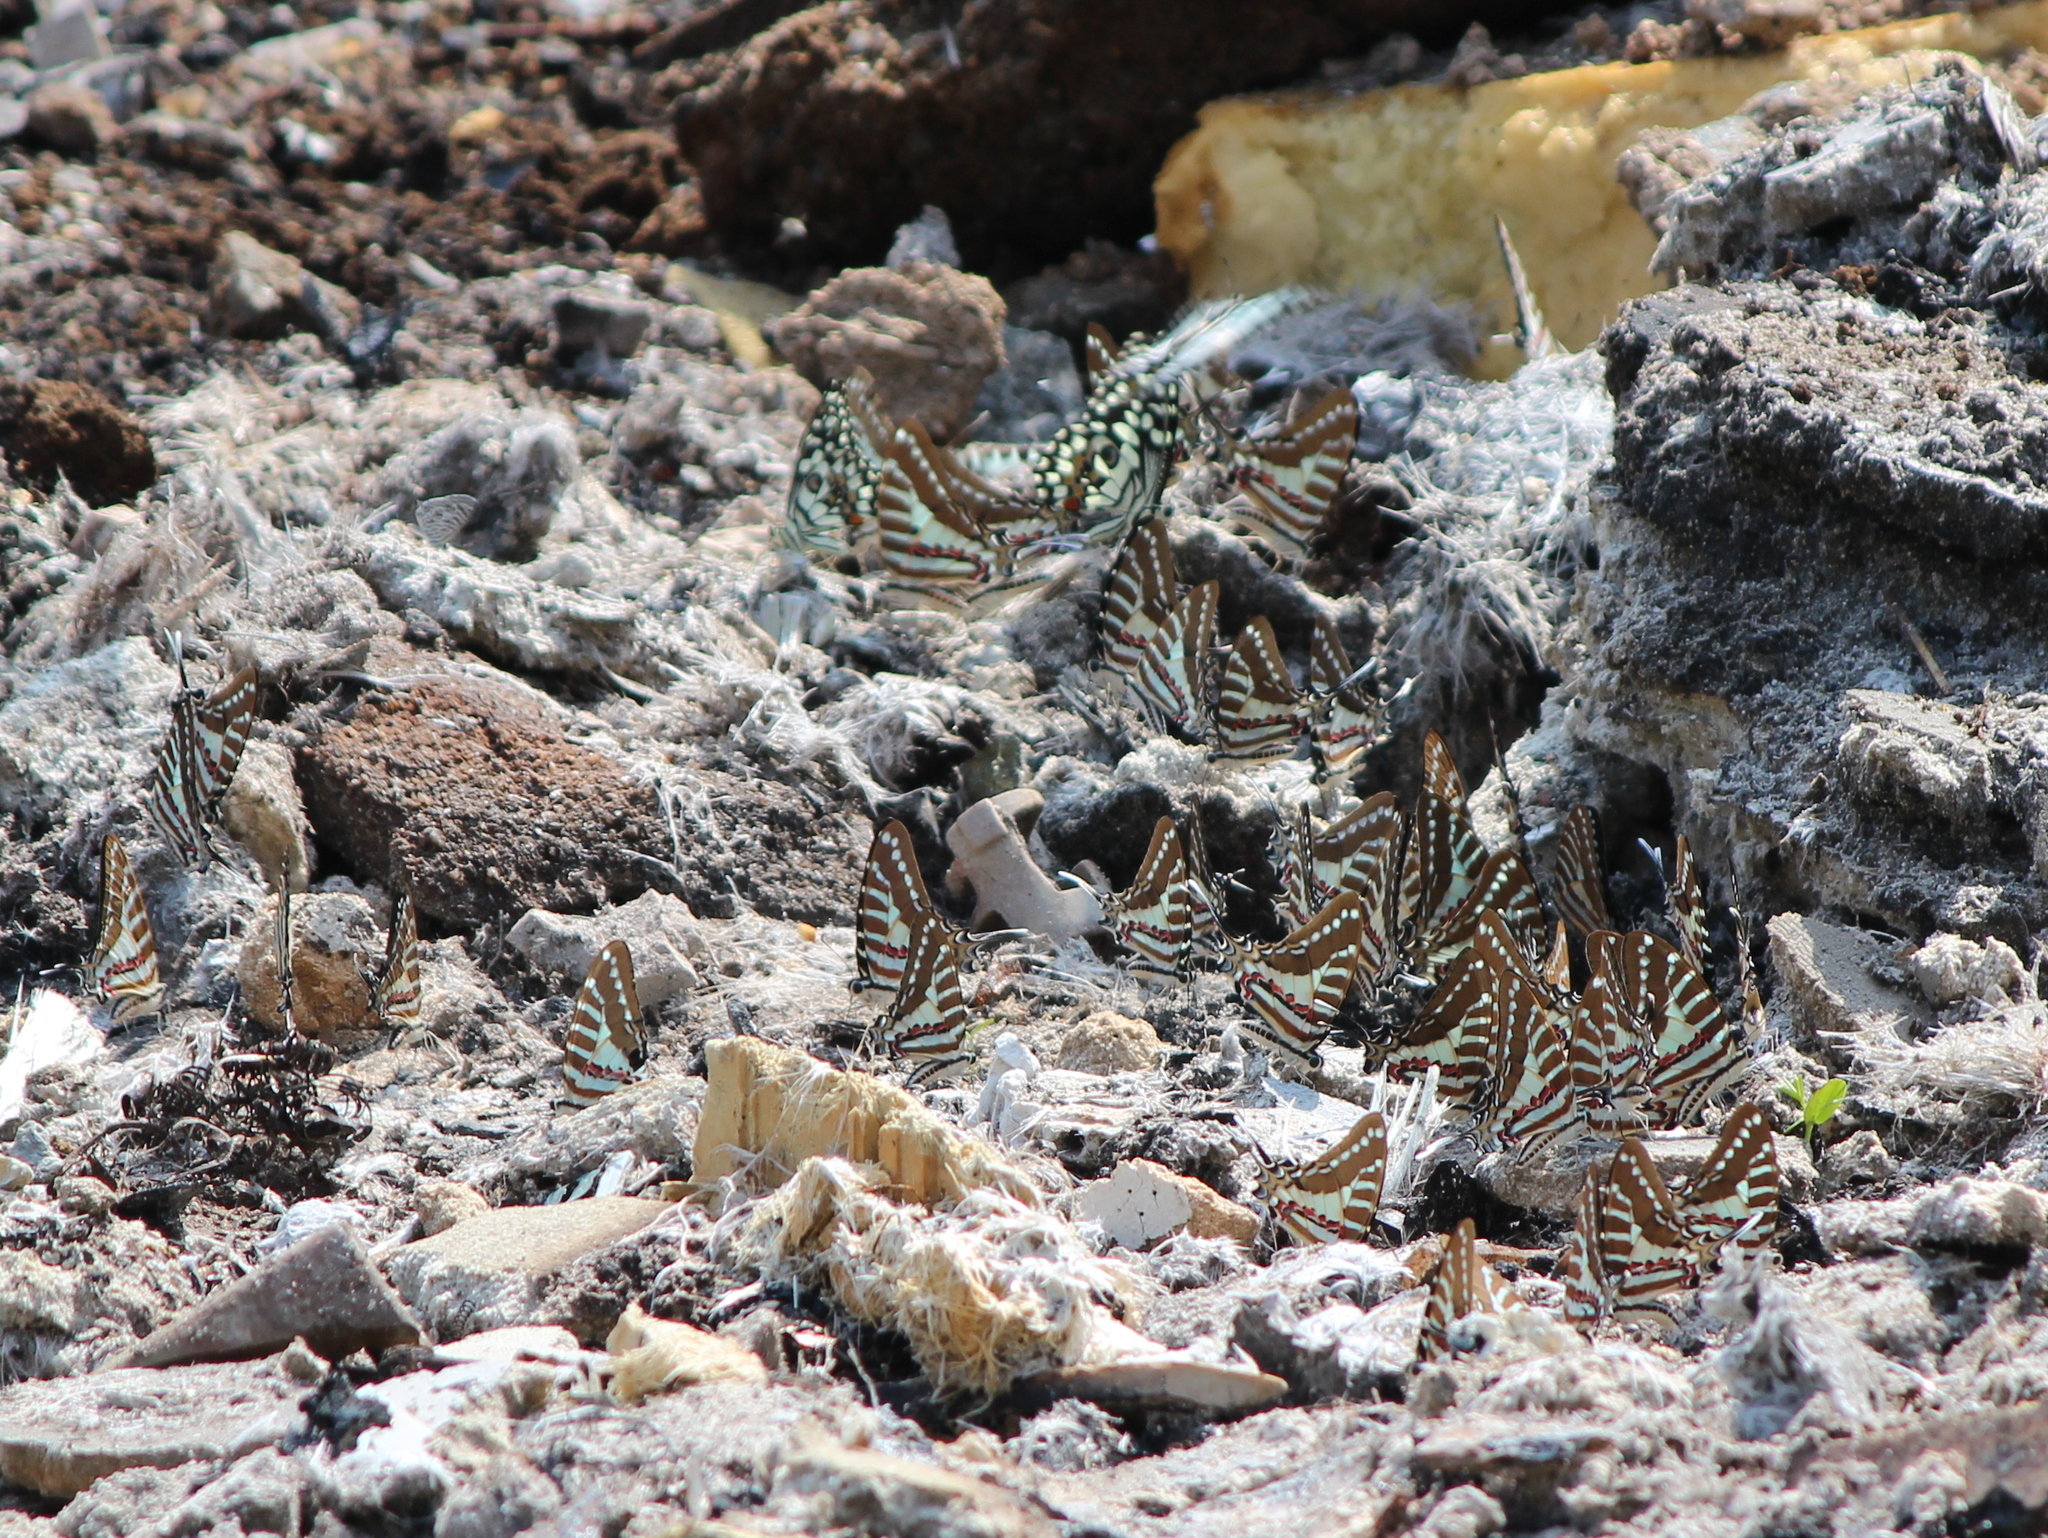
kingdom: Animalia
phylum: Arthropoda
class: Insecta
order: Lepidoptera
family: Papilionidae
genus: Graphium
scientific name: Graphium nomius
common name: Spot swordtail
